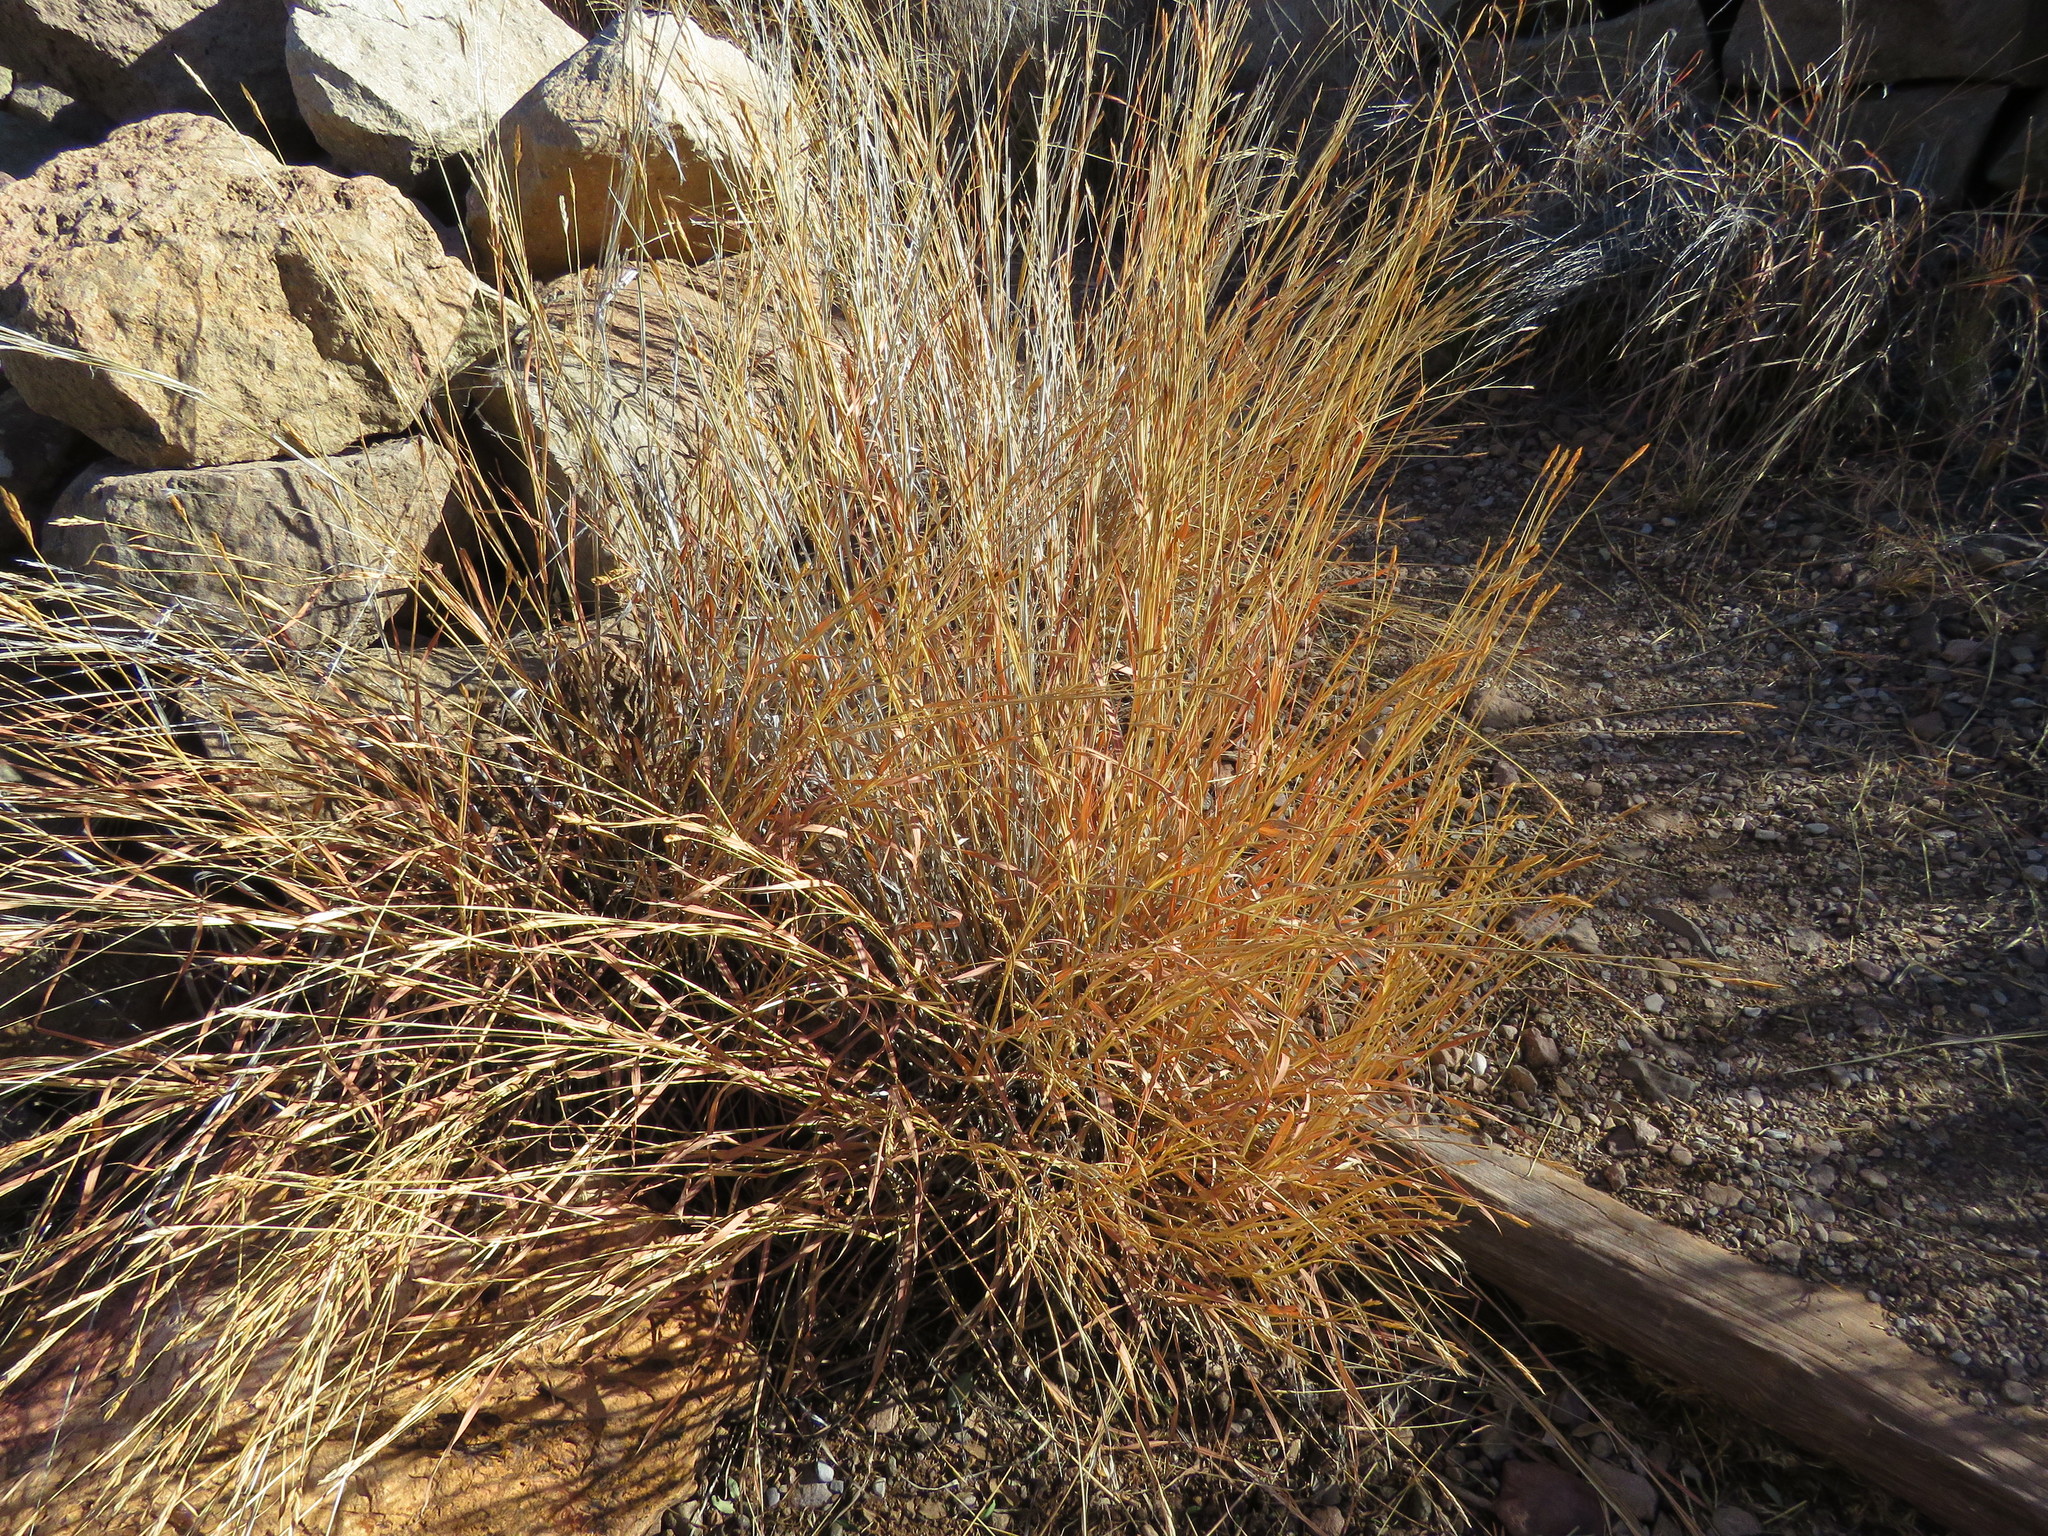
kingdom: Plantae
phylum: Tracheophyta
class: Liliopsida
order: Poales
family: Poaceae
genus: Heteropogon
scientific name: Heteropogon contortus
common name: Tanglehead
